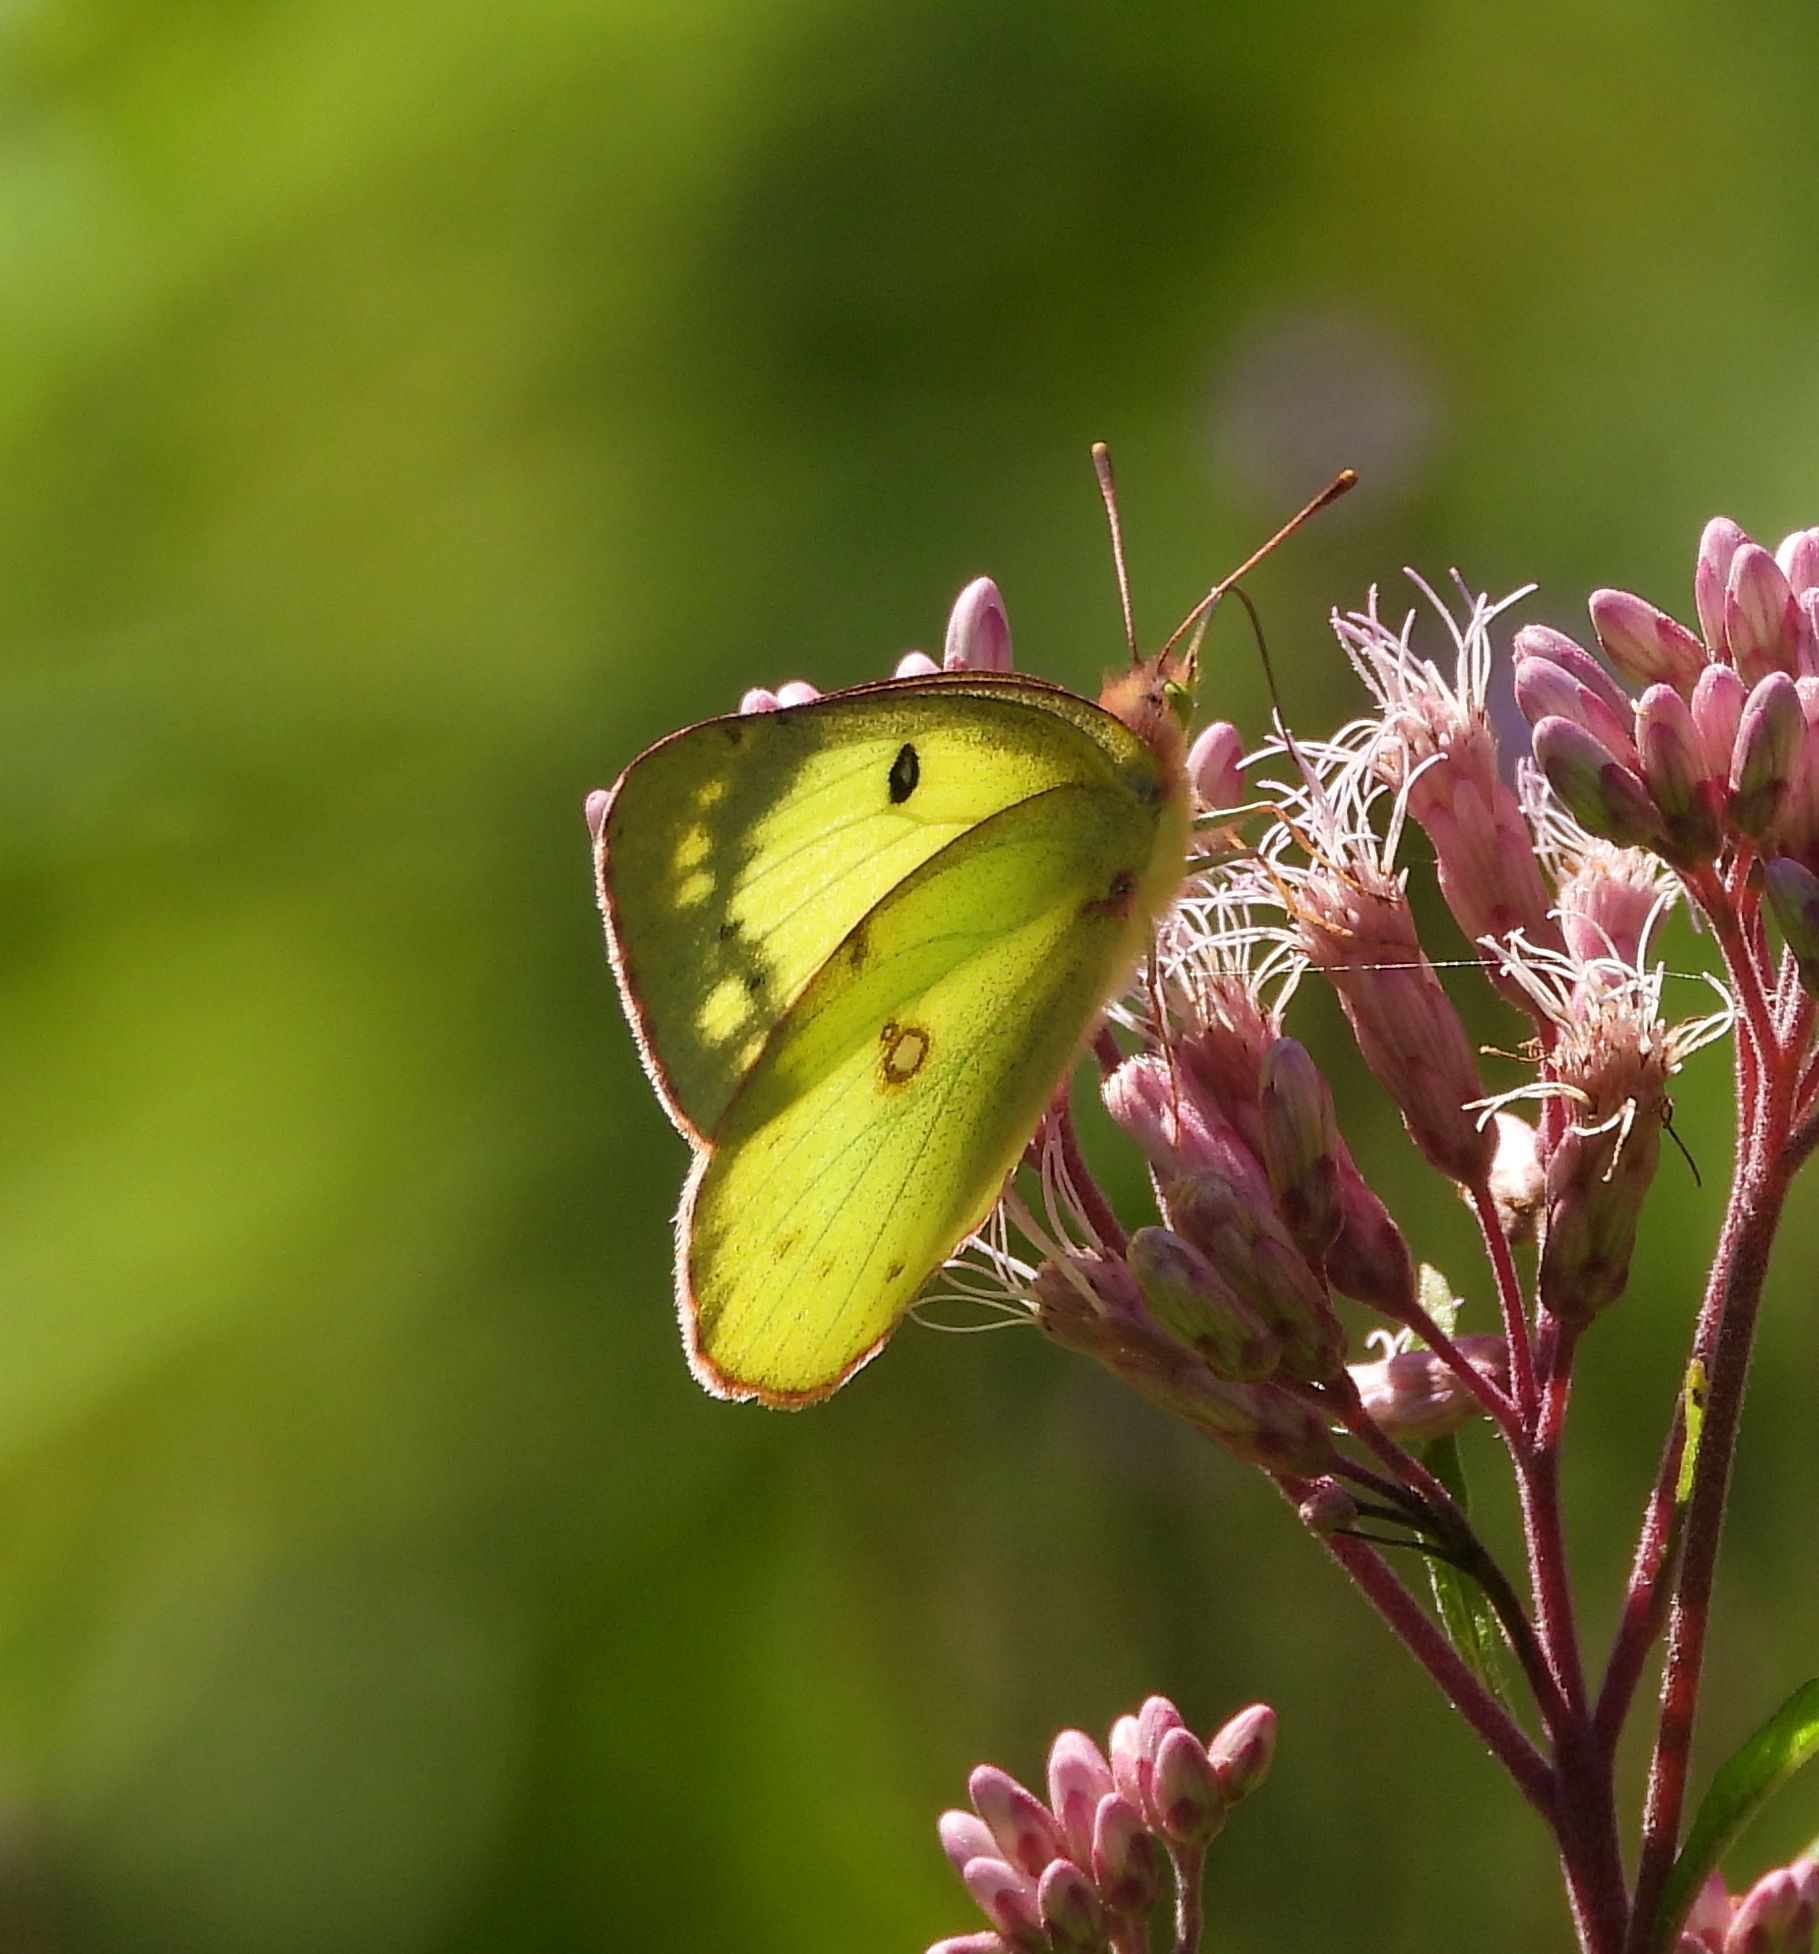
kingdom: Animalia
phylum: Arthropoda
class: Insecta
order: Lepidoptera
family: Pieridae
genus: Colias
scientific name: Colias philodice
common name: Clouded sulphur
